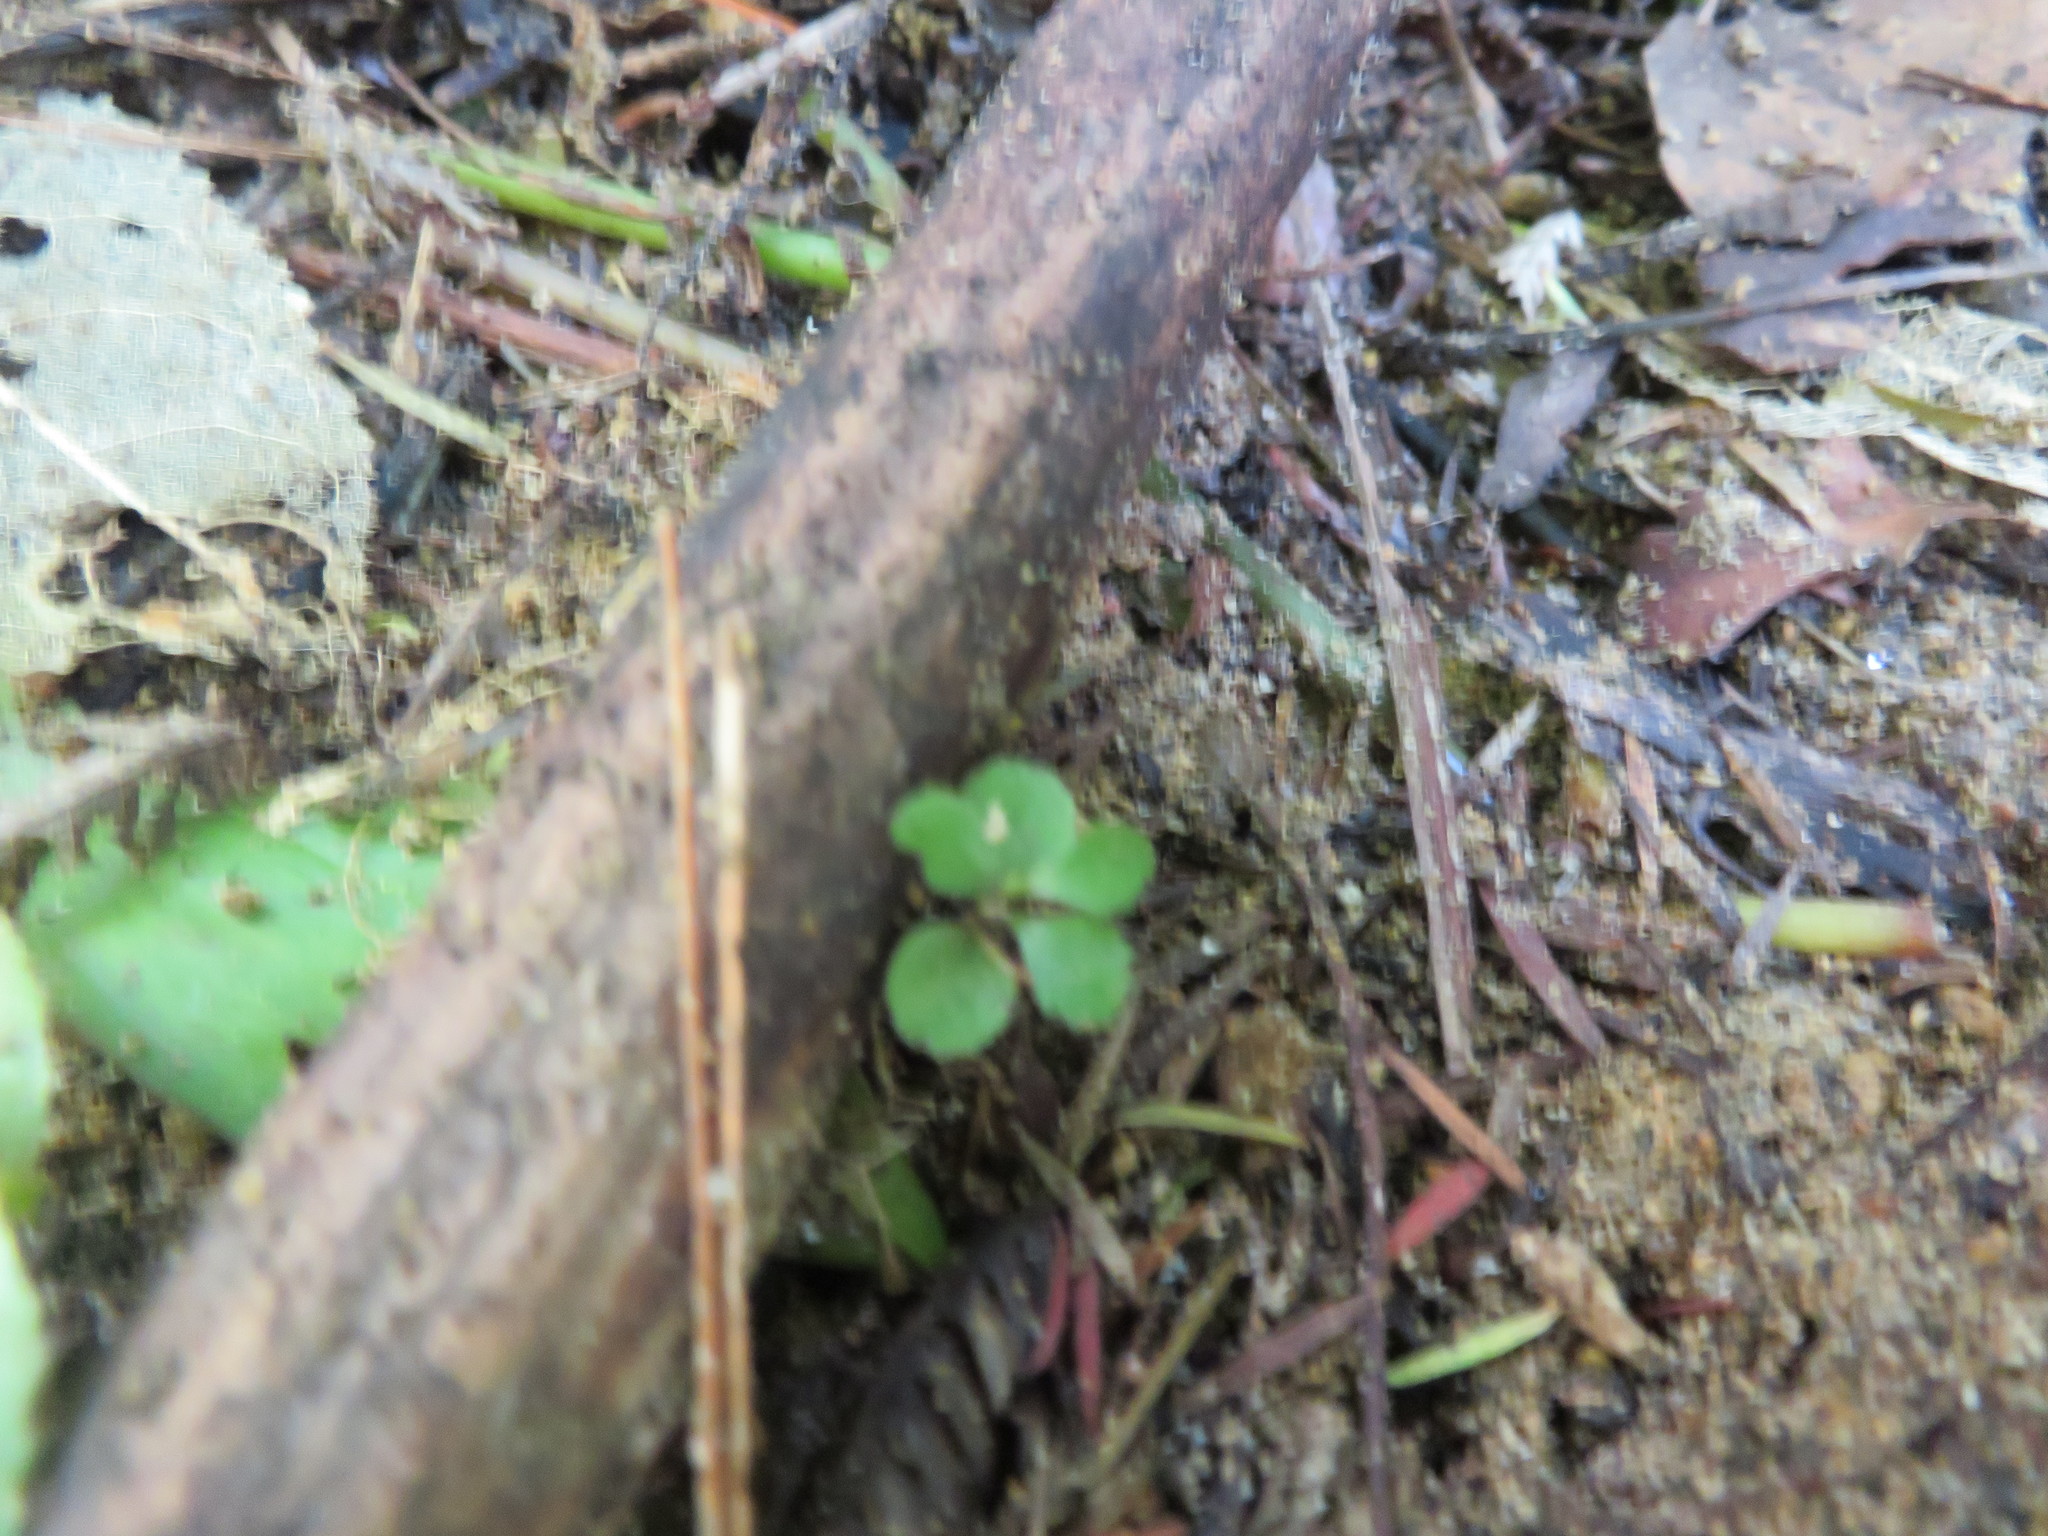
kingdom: Plantae
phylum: Tracheophyta
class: Magnoliopsida
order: Ericales
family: Primulaceae
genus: Myrsine
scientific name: Myrsine australis
